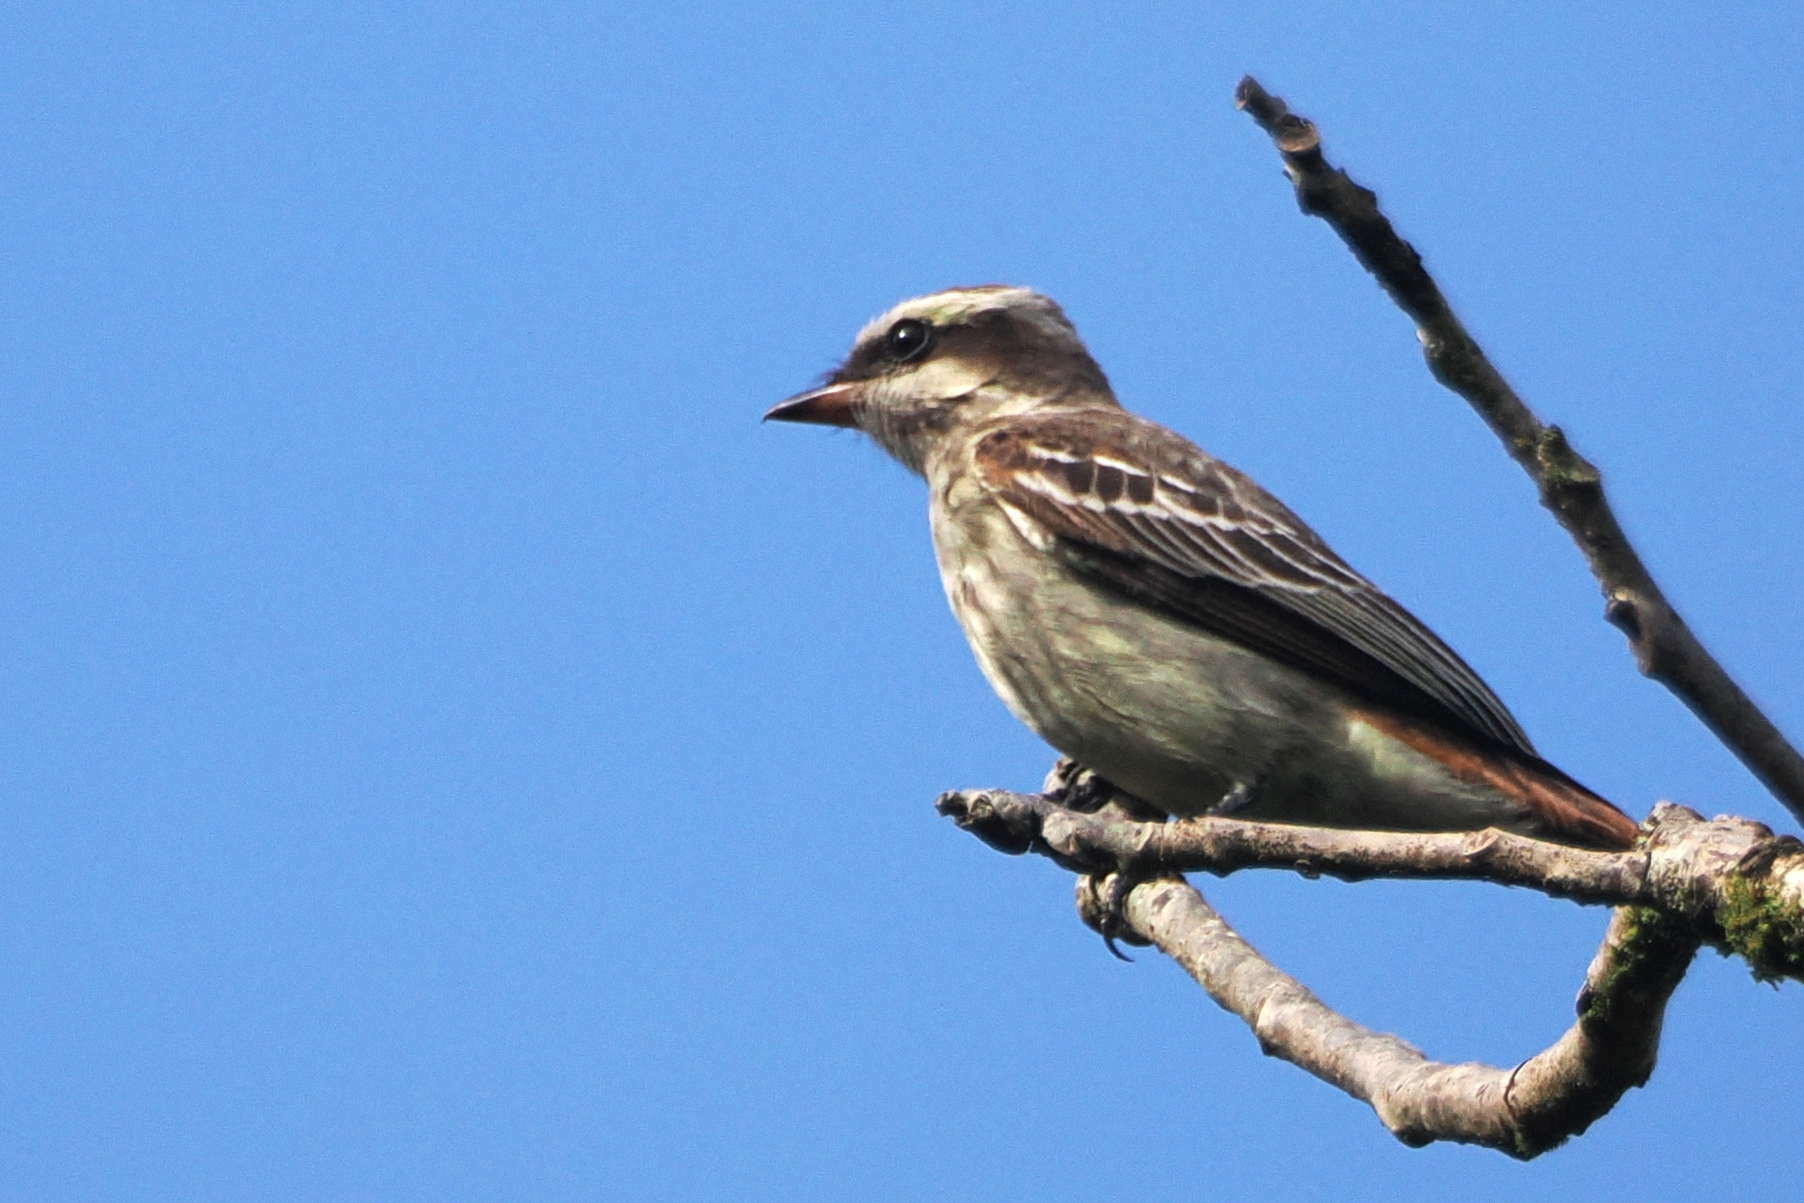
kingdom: Animalia
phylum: Chordata
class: Aves
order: Passeriformes
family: Tyrannidae
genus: Empidonomus
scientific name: Empidonomus varius
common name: Variegated flycatcher
